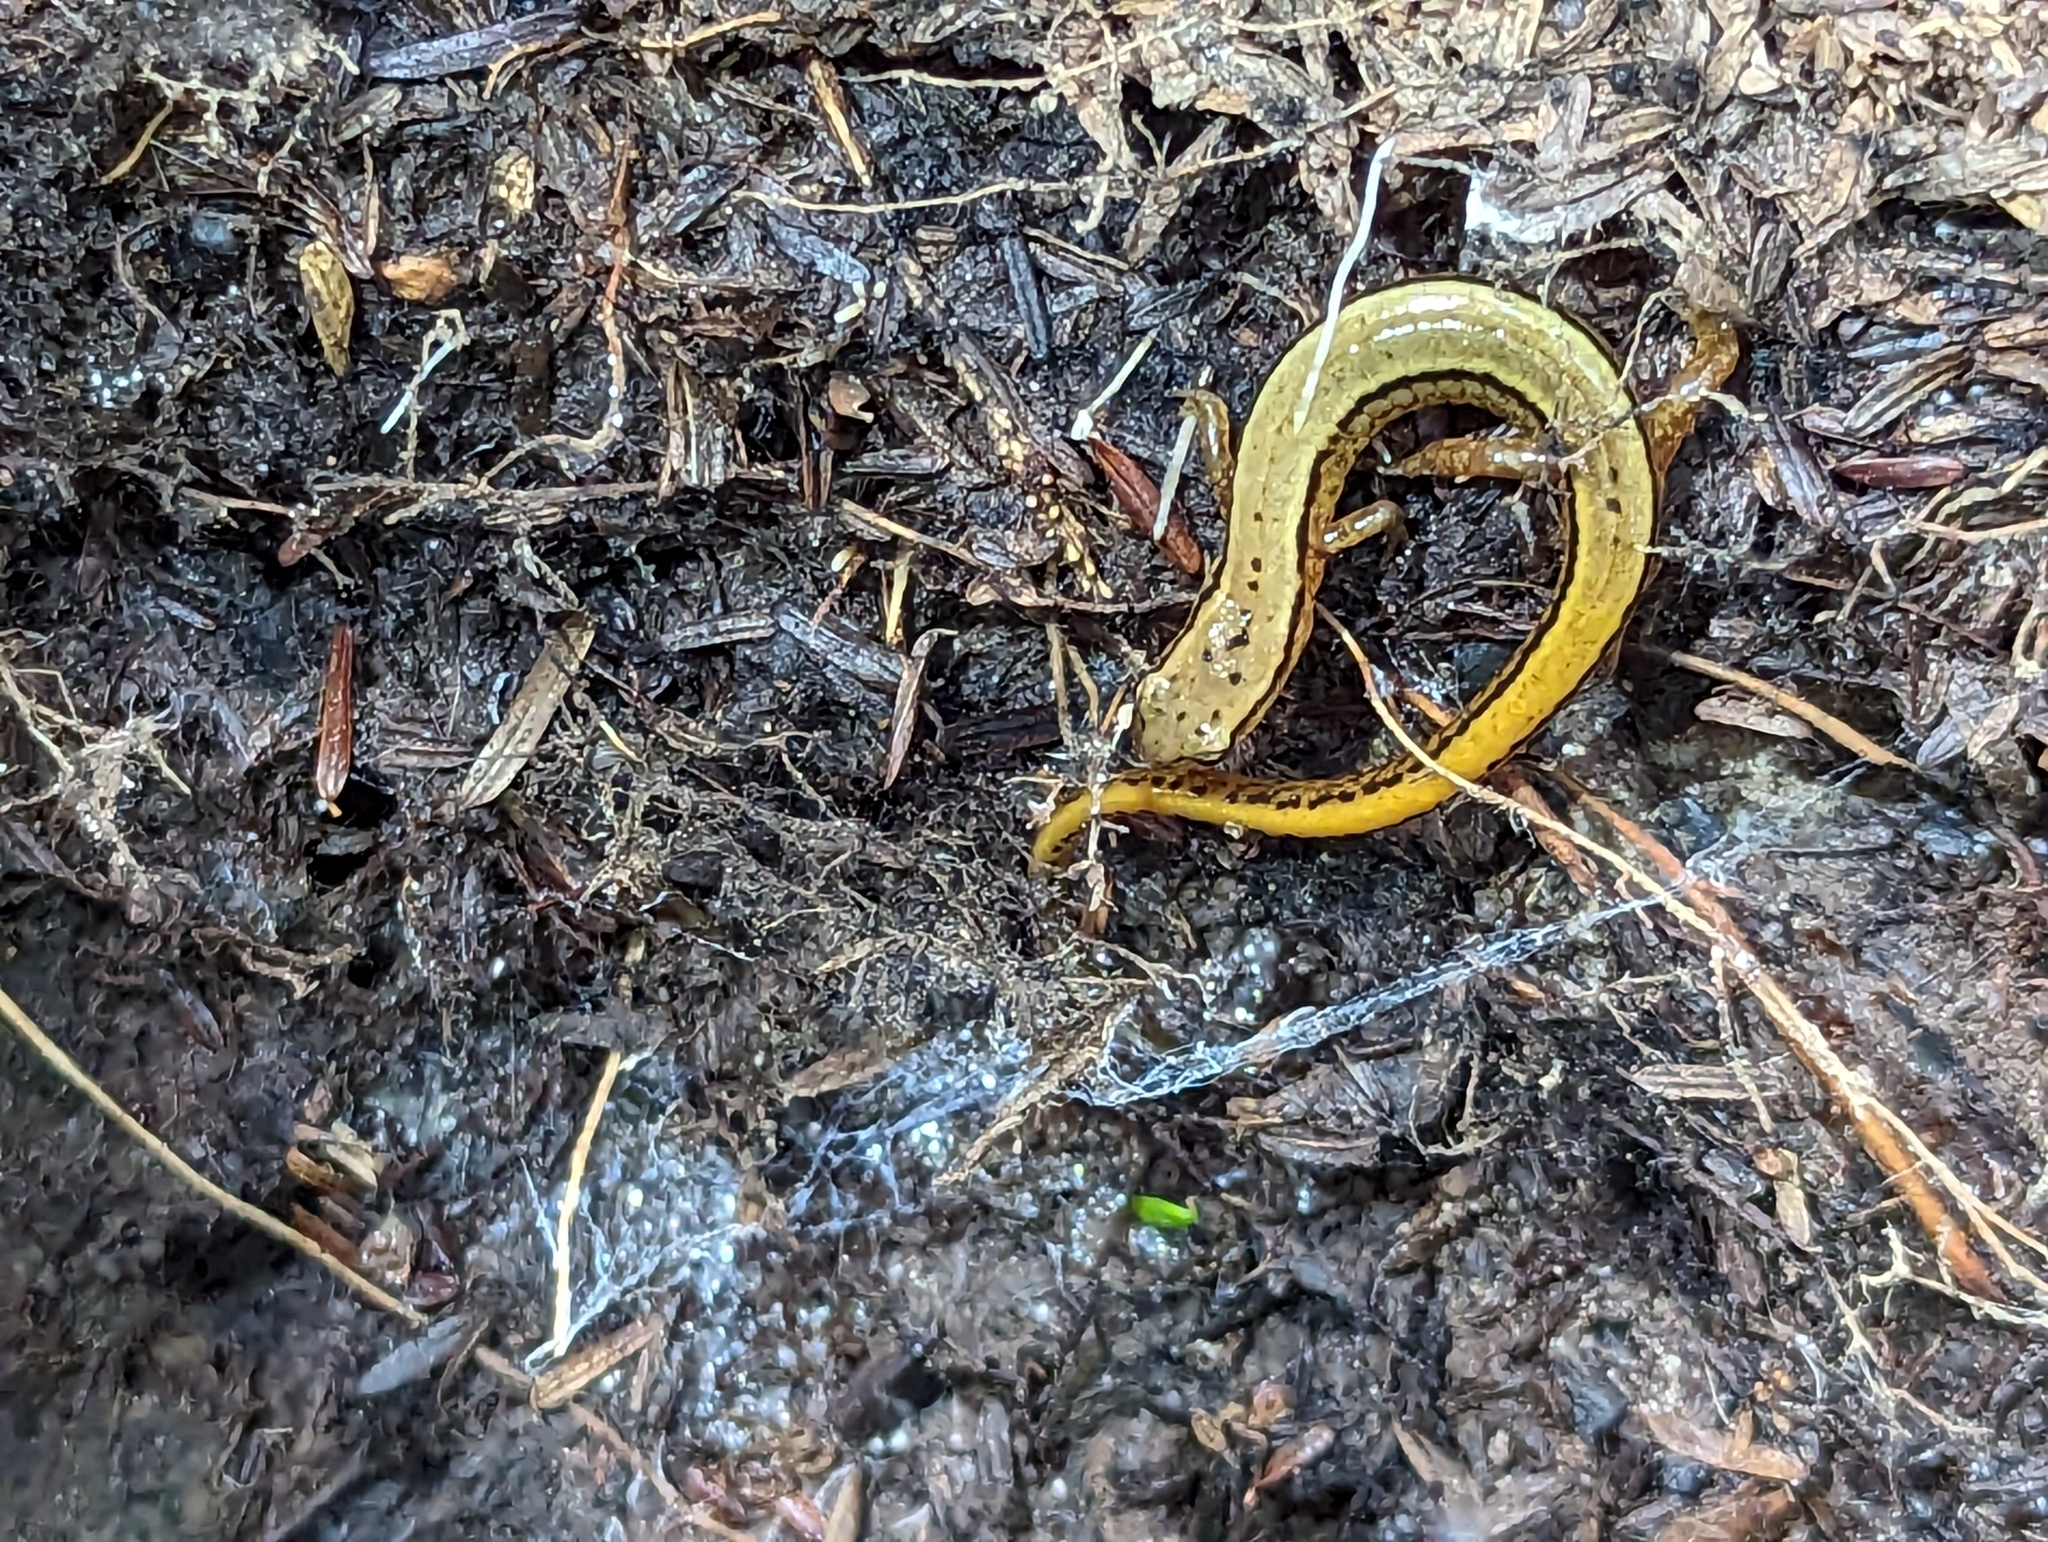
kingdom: Animalia
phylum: Chordata
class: Amphibia
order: Caudata
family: Plethodontidae
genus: Eurycea
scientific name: Eurycea bislineata
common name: Northern two-lined salamander
